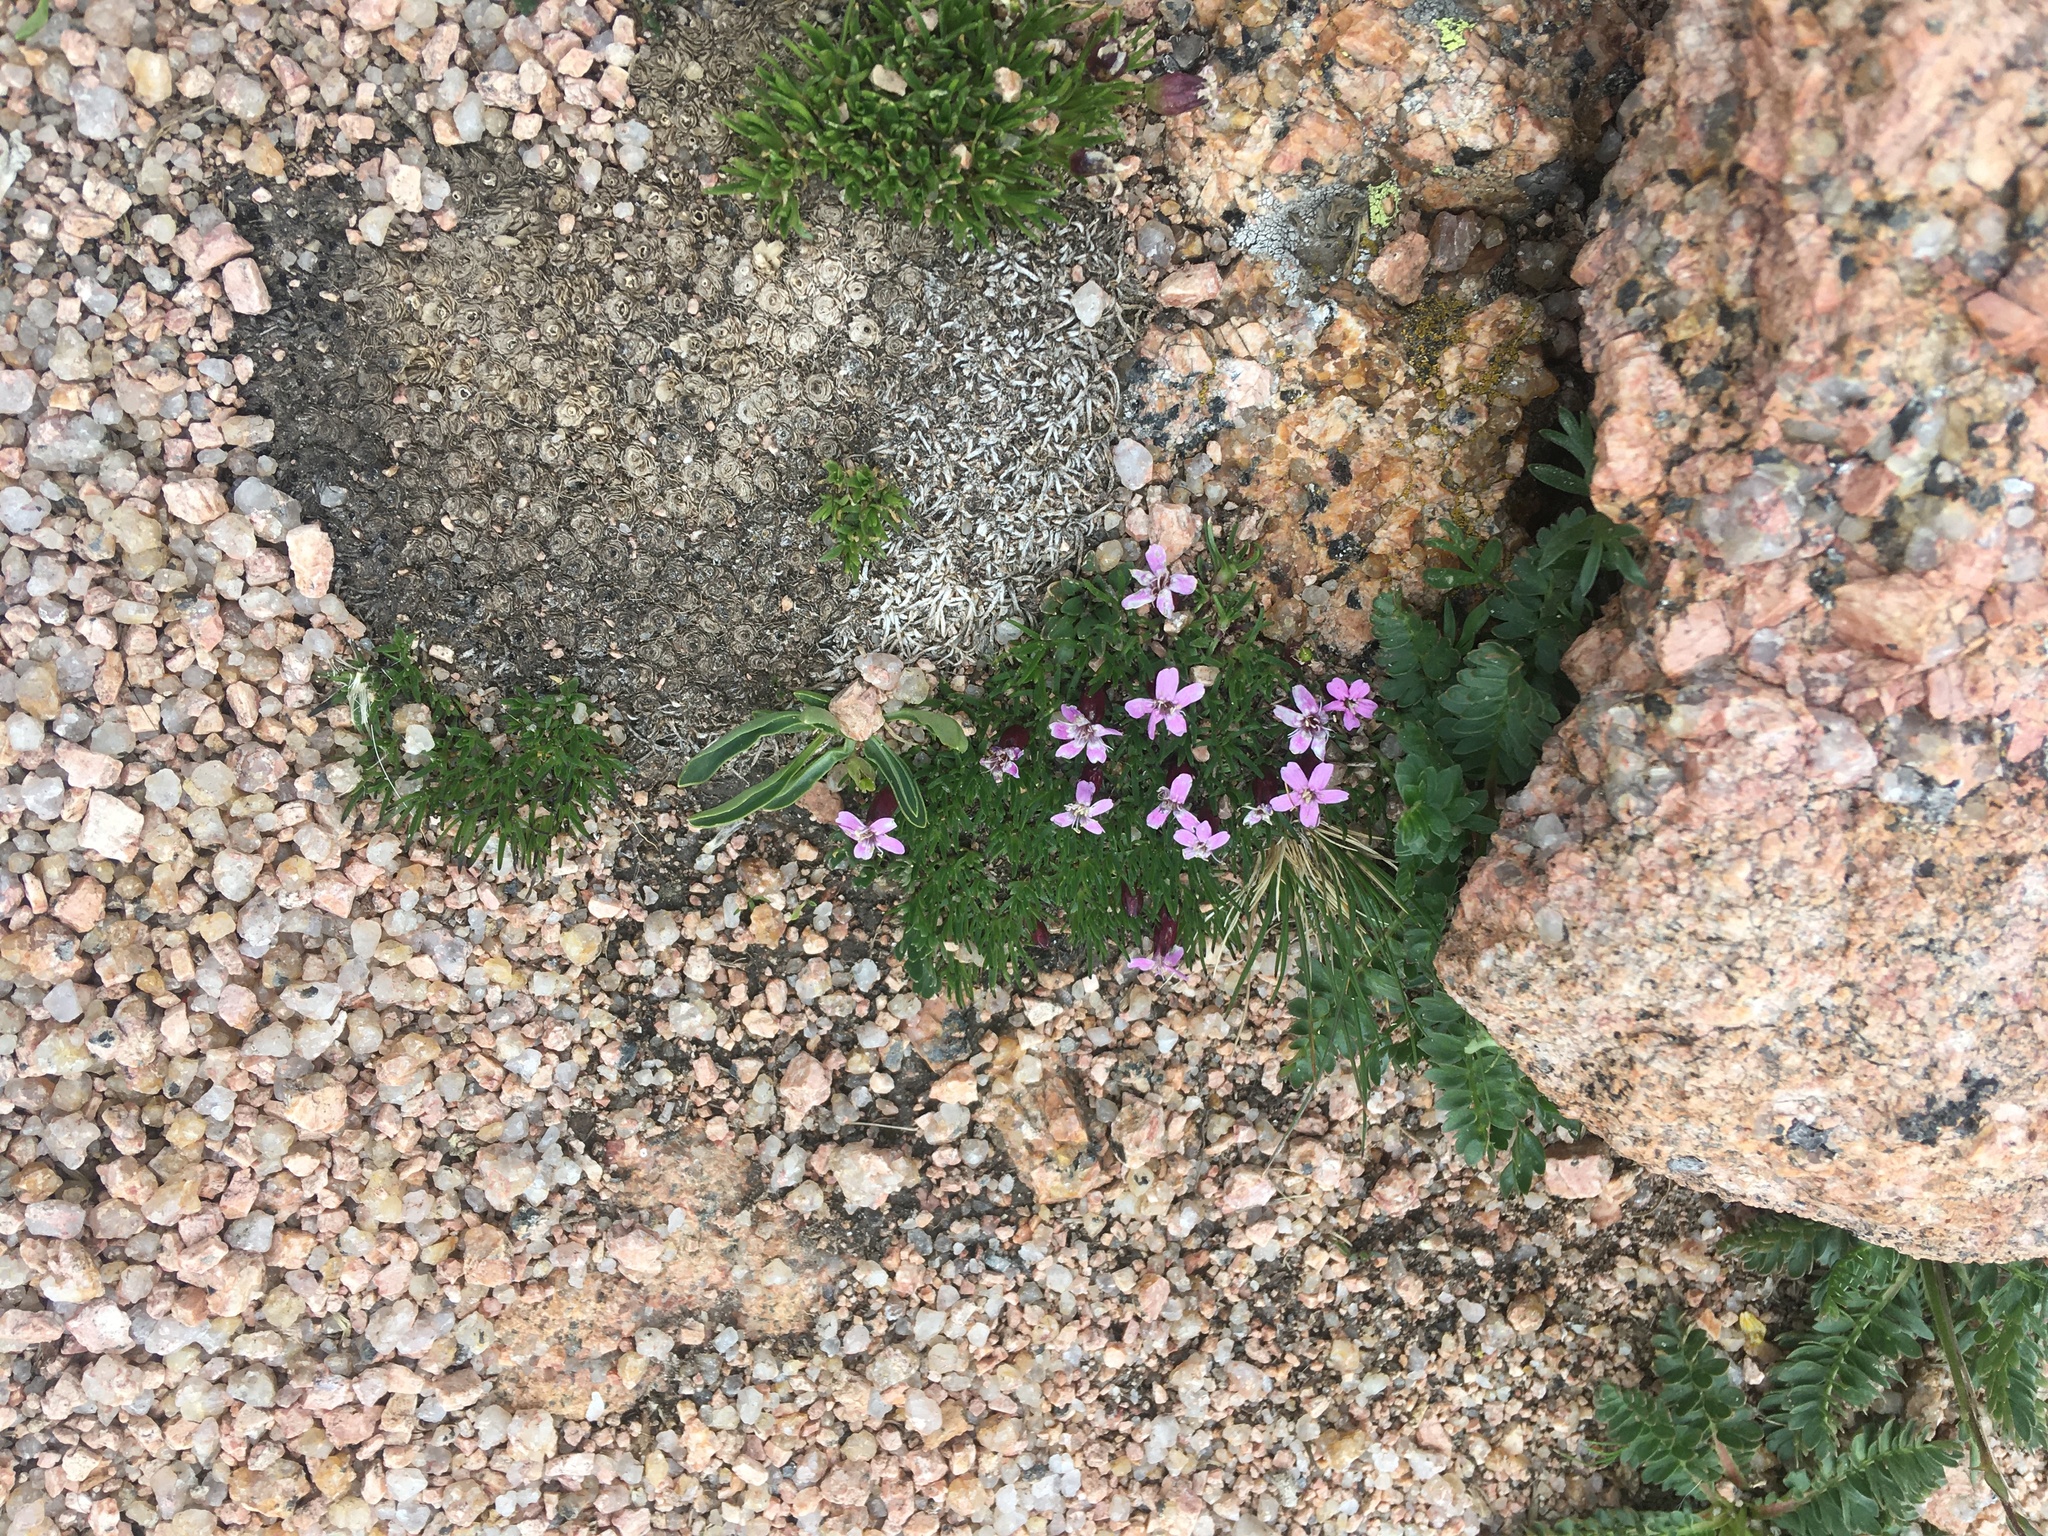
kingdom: Plantae
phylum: Tracheophyta
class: Magnoliopsida
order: Caryophyllales
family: Caryophyllaceae
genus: Silene
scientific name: Silene acaulis
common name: Moss campion
